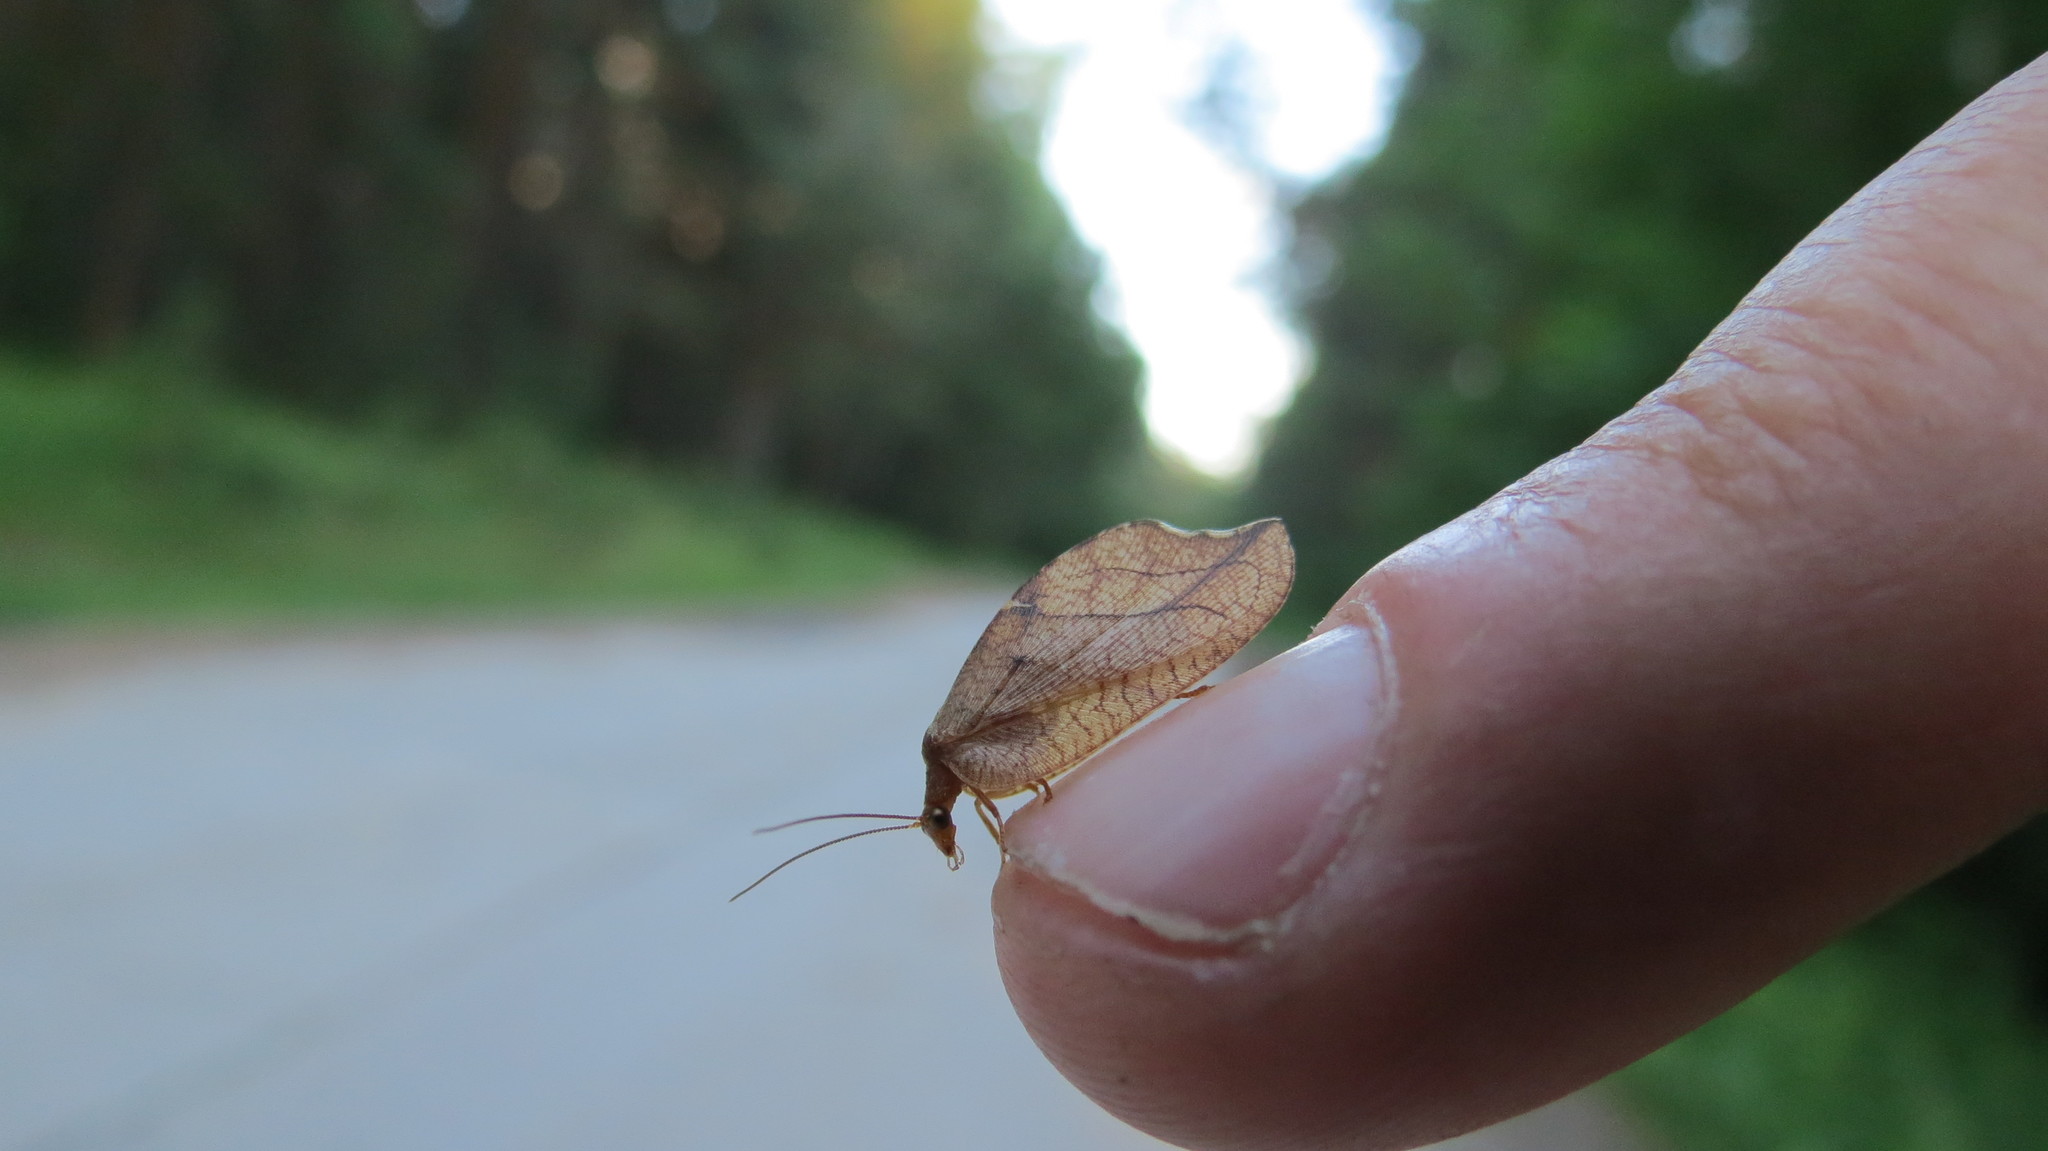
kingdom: Animalia
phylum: Arthropoda
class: Insecta
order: Neuroptera
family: Hemerobiidae
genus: Drepanepteryx
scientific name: Drepanepteryx phalaenoides
